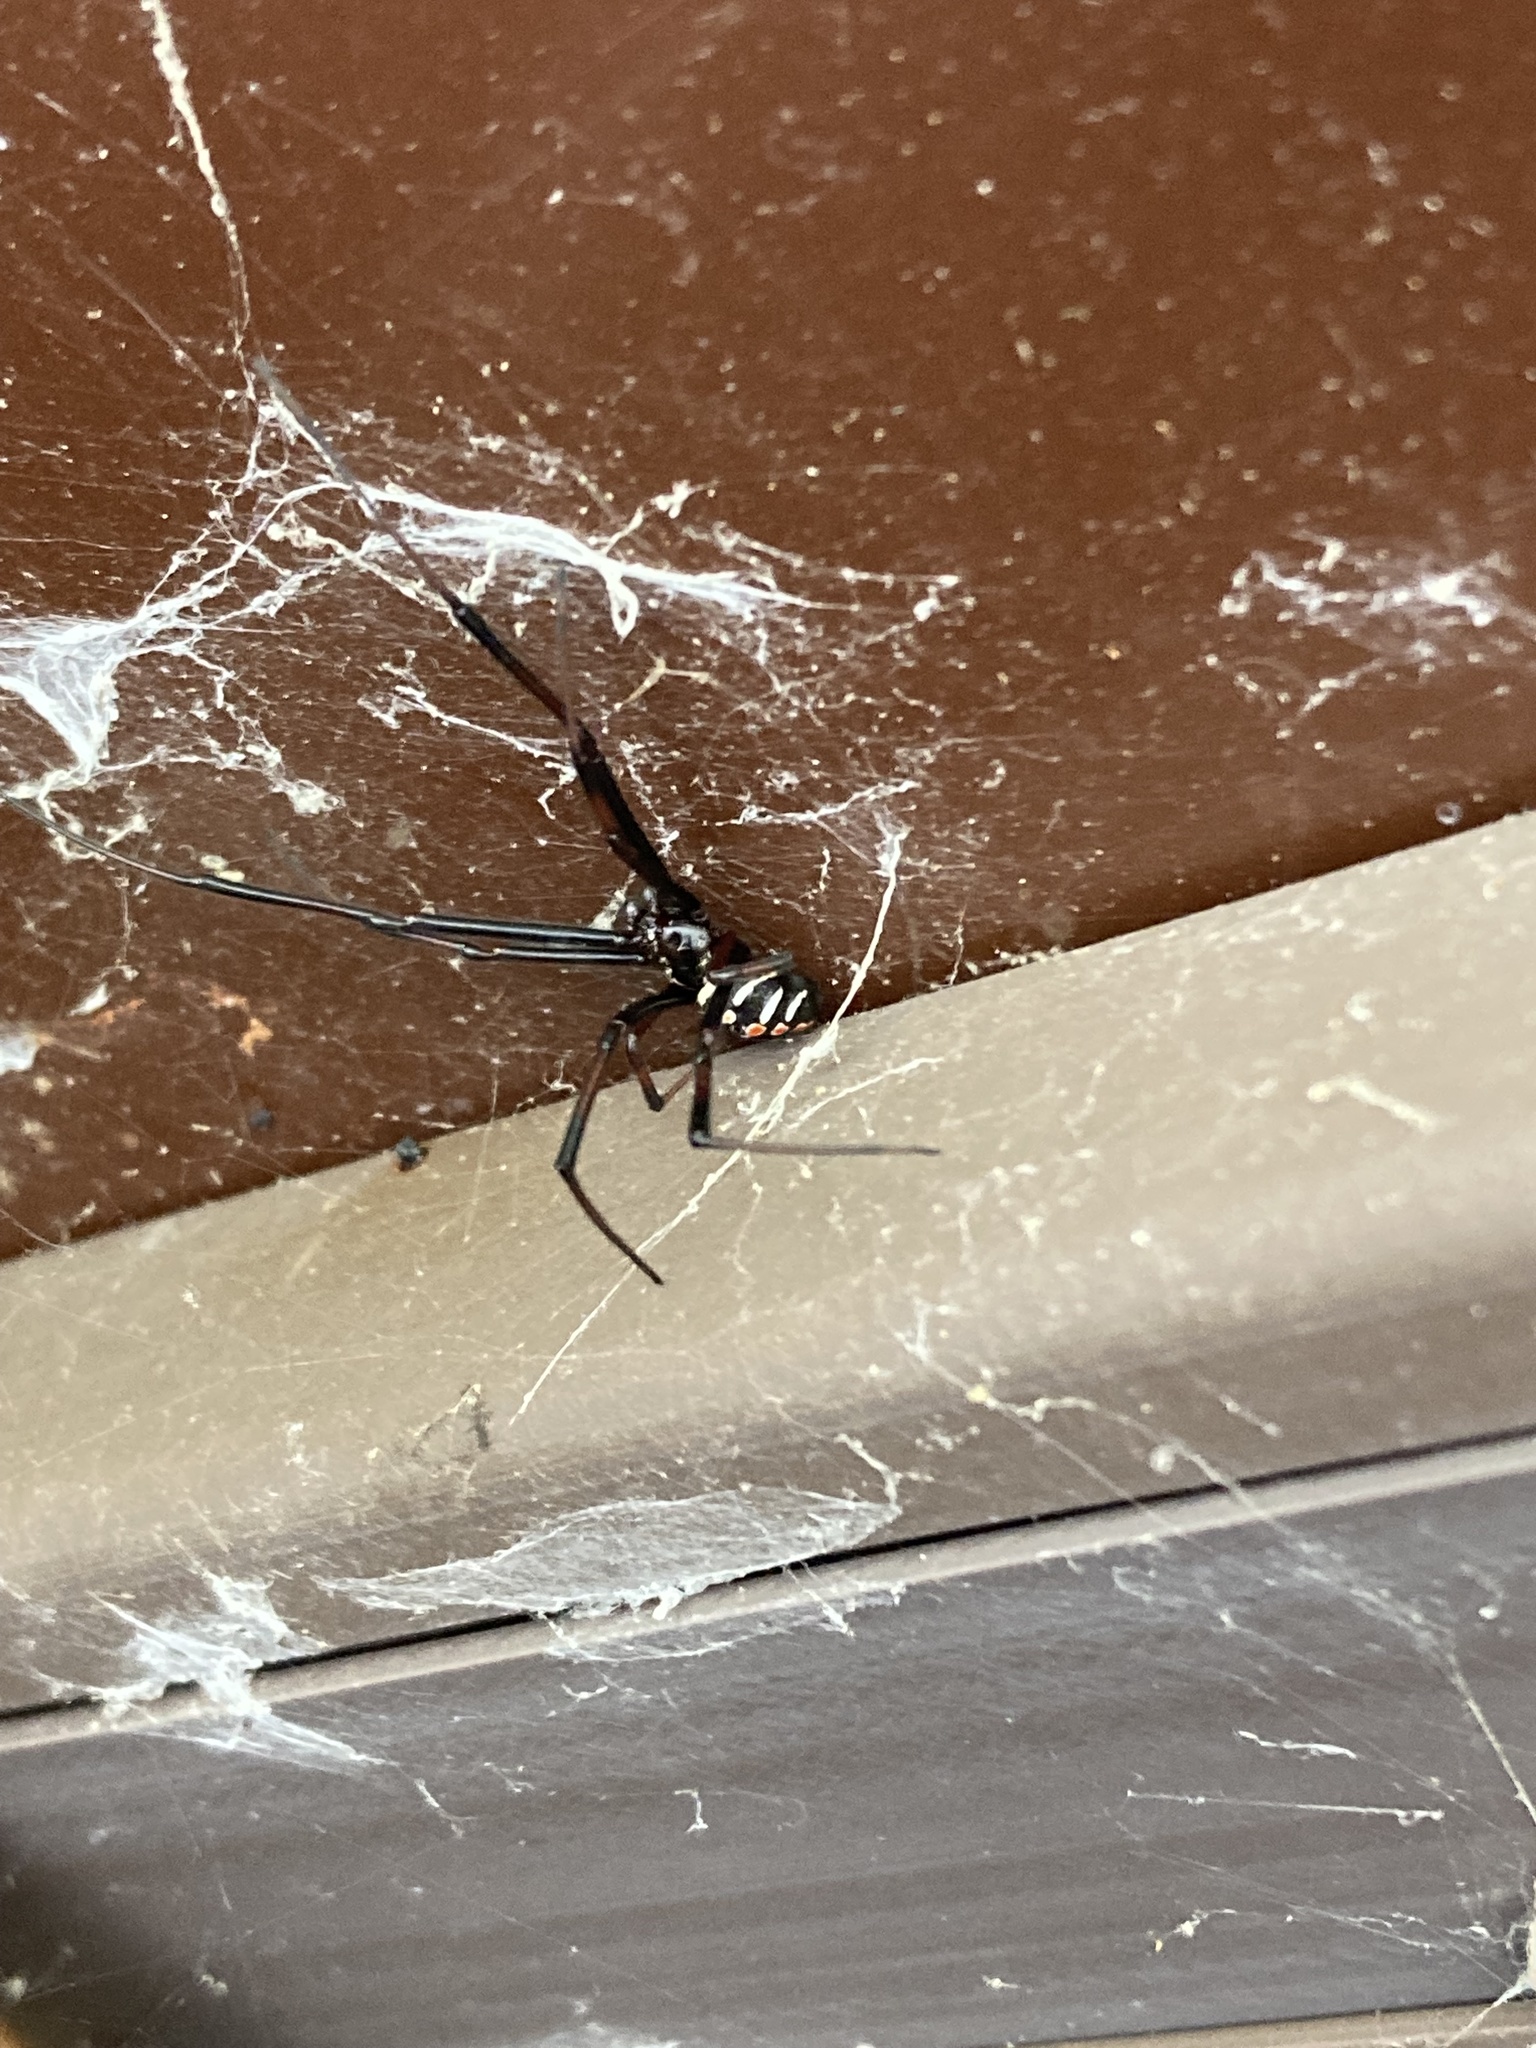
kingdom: Animalia
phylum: Arthropoda
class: Arachnida
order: Araneae
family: Theridiidae
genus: Latrodectus
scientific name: Latrodectus variolus
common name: Northern black widow
